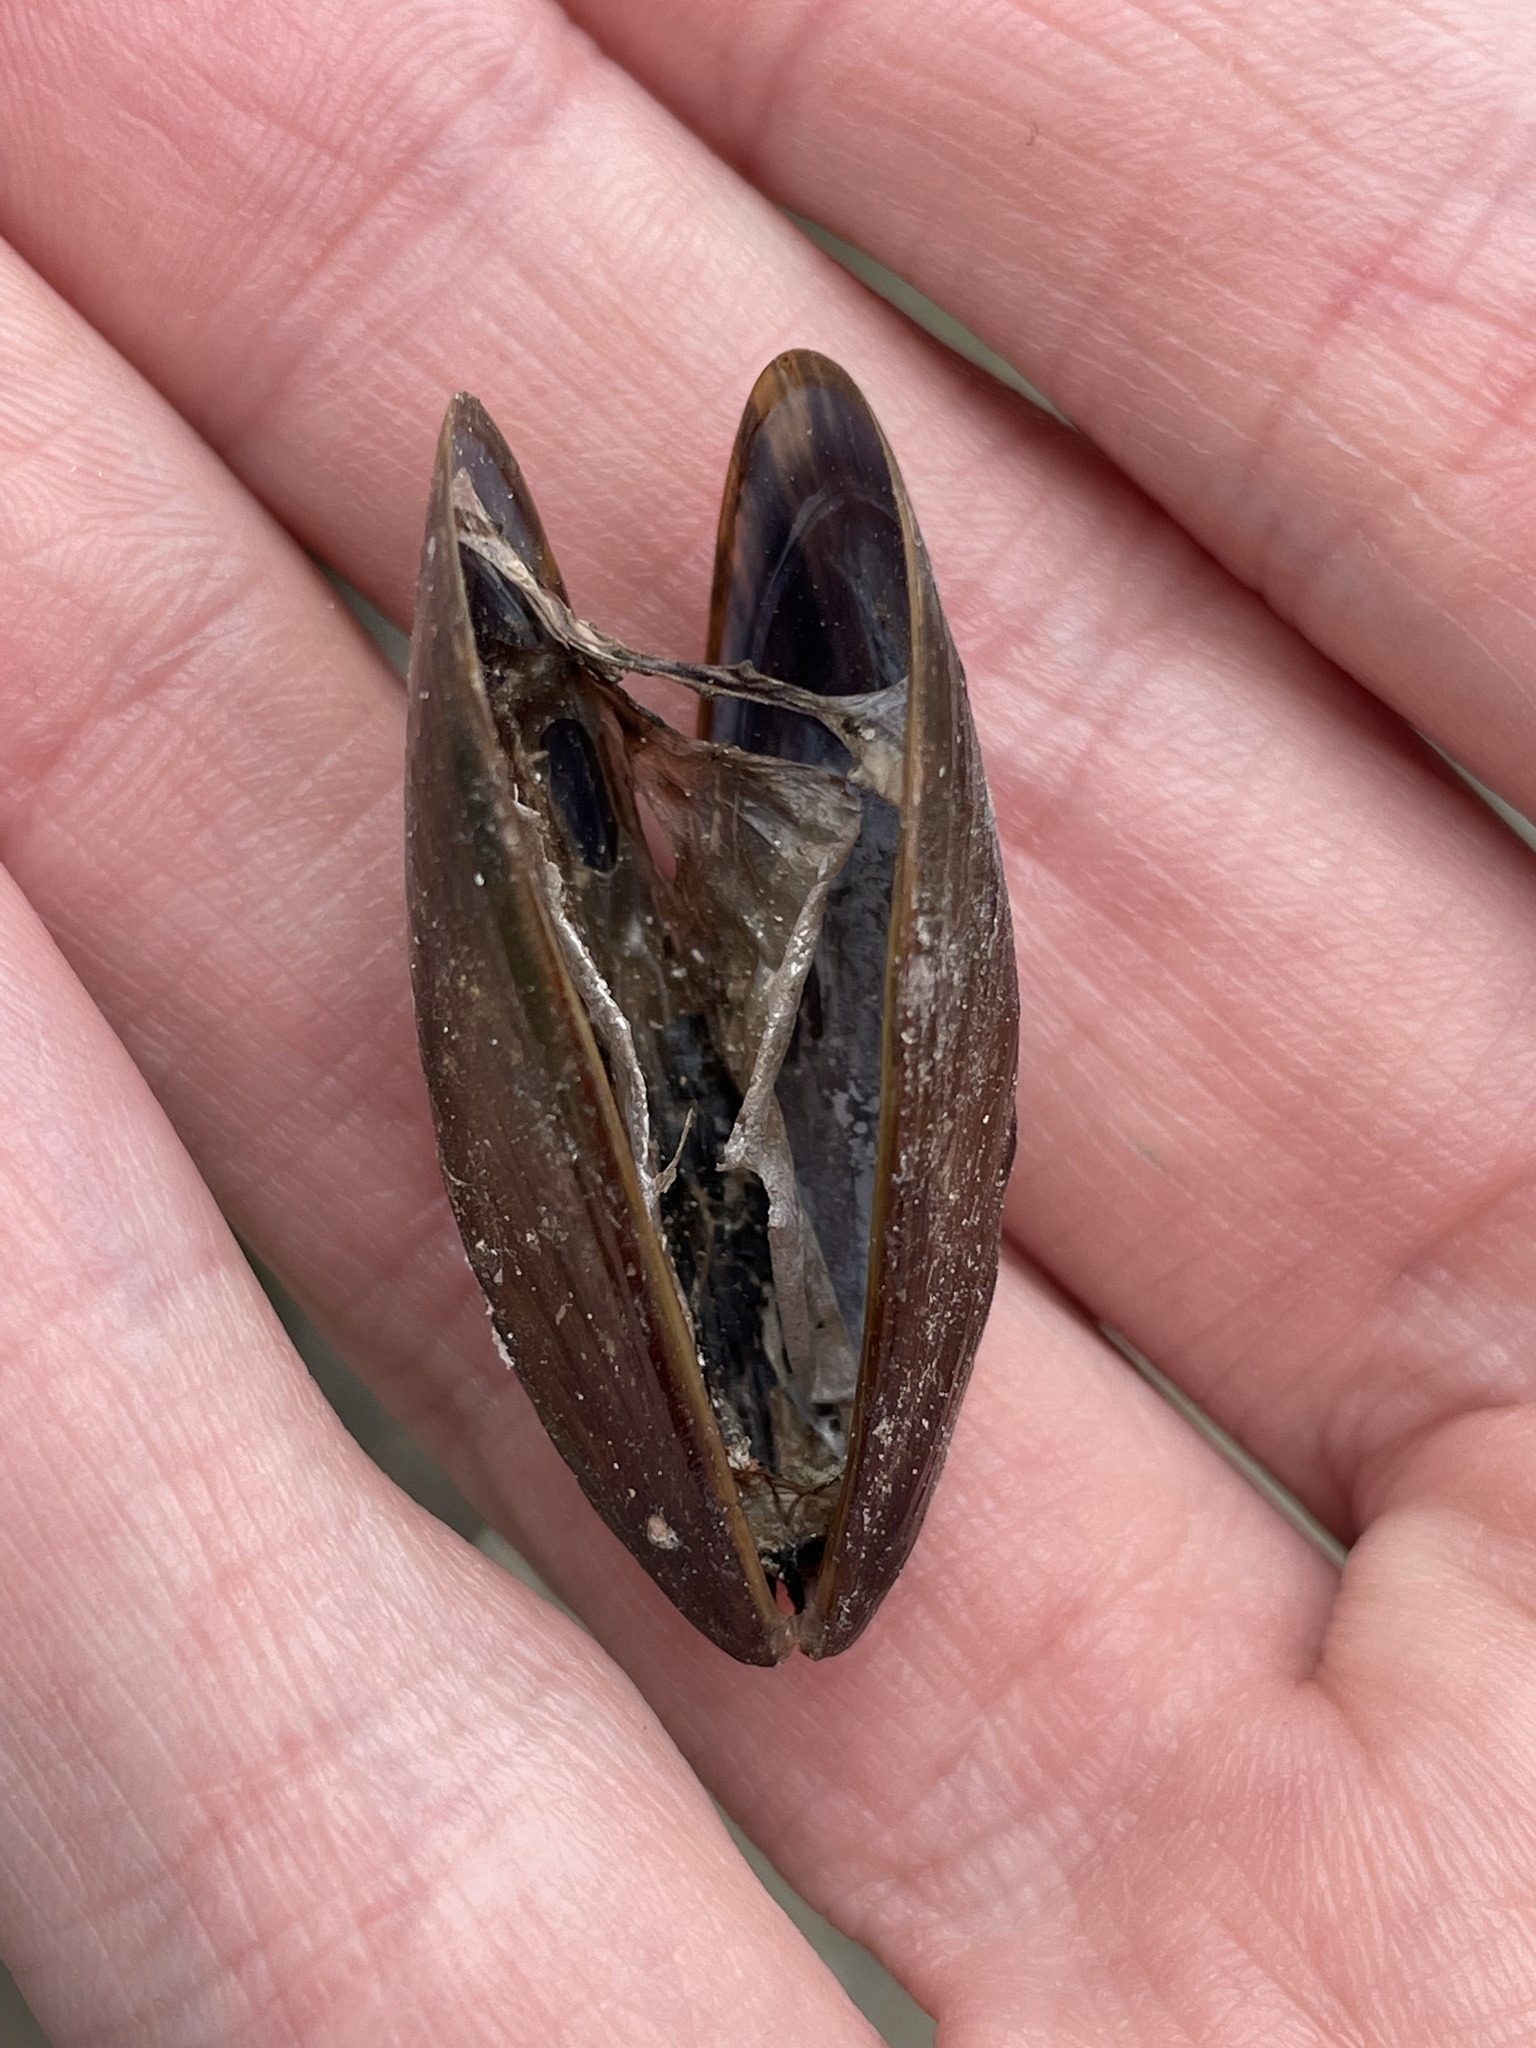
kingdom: Animalia
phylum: Mollusca
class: Bivalvia
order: Mytilida
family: Mytilidae
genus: Mytilus
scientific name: Mytilus edulis
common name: Blue mussel
